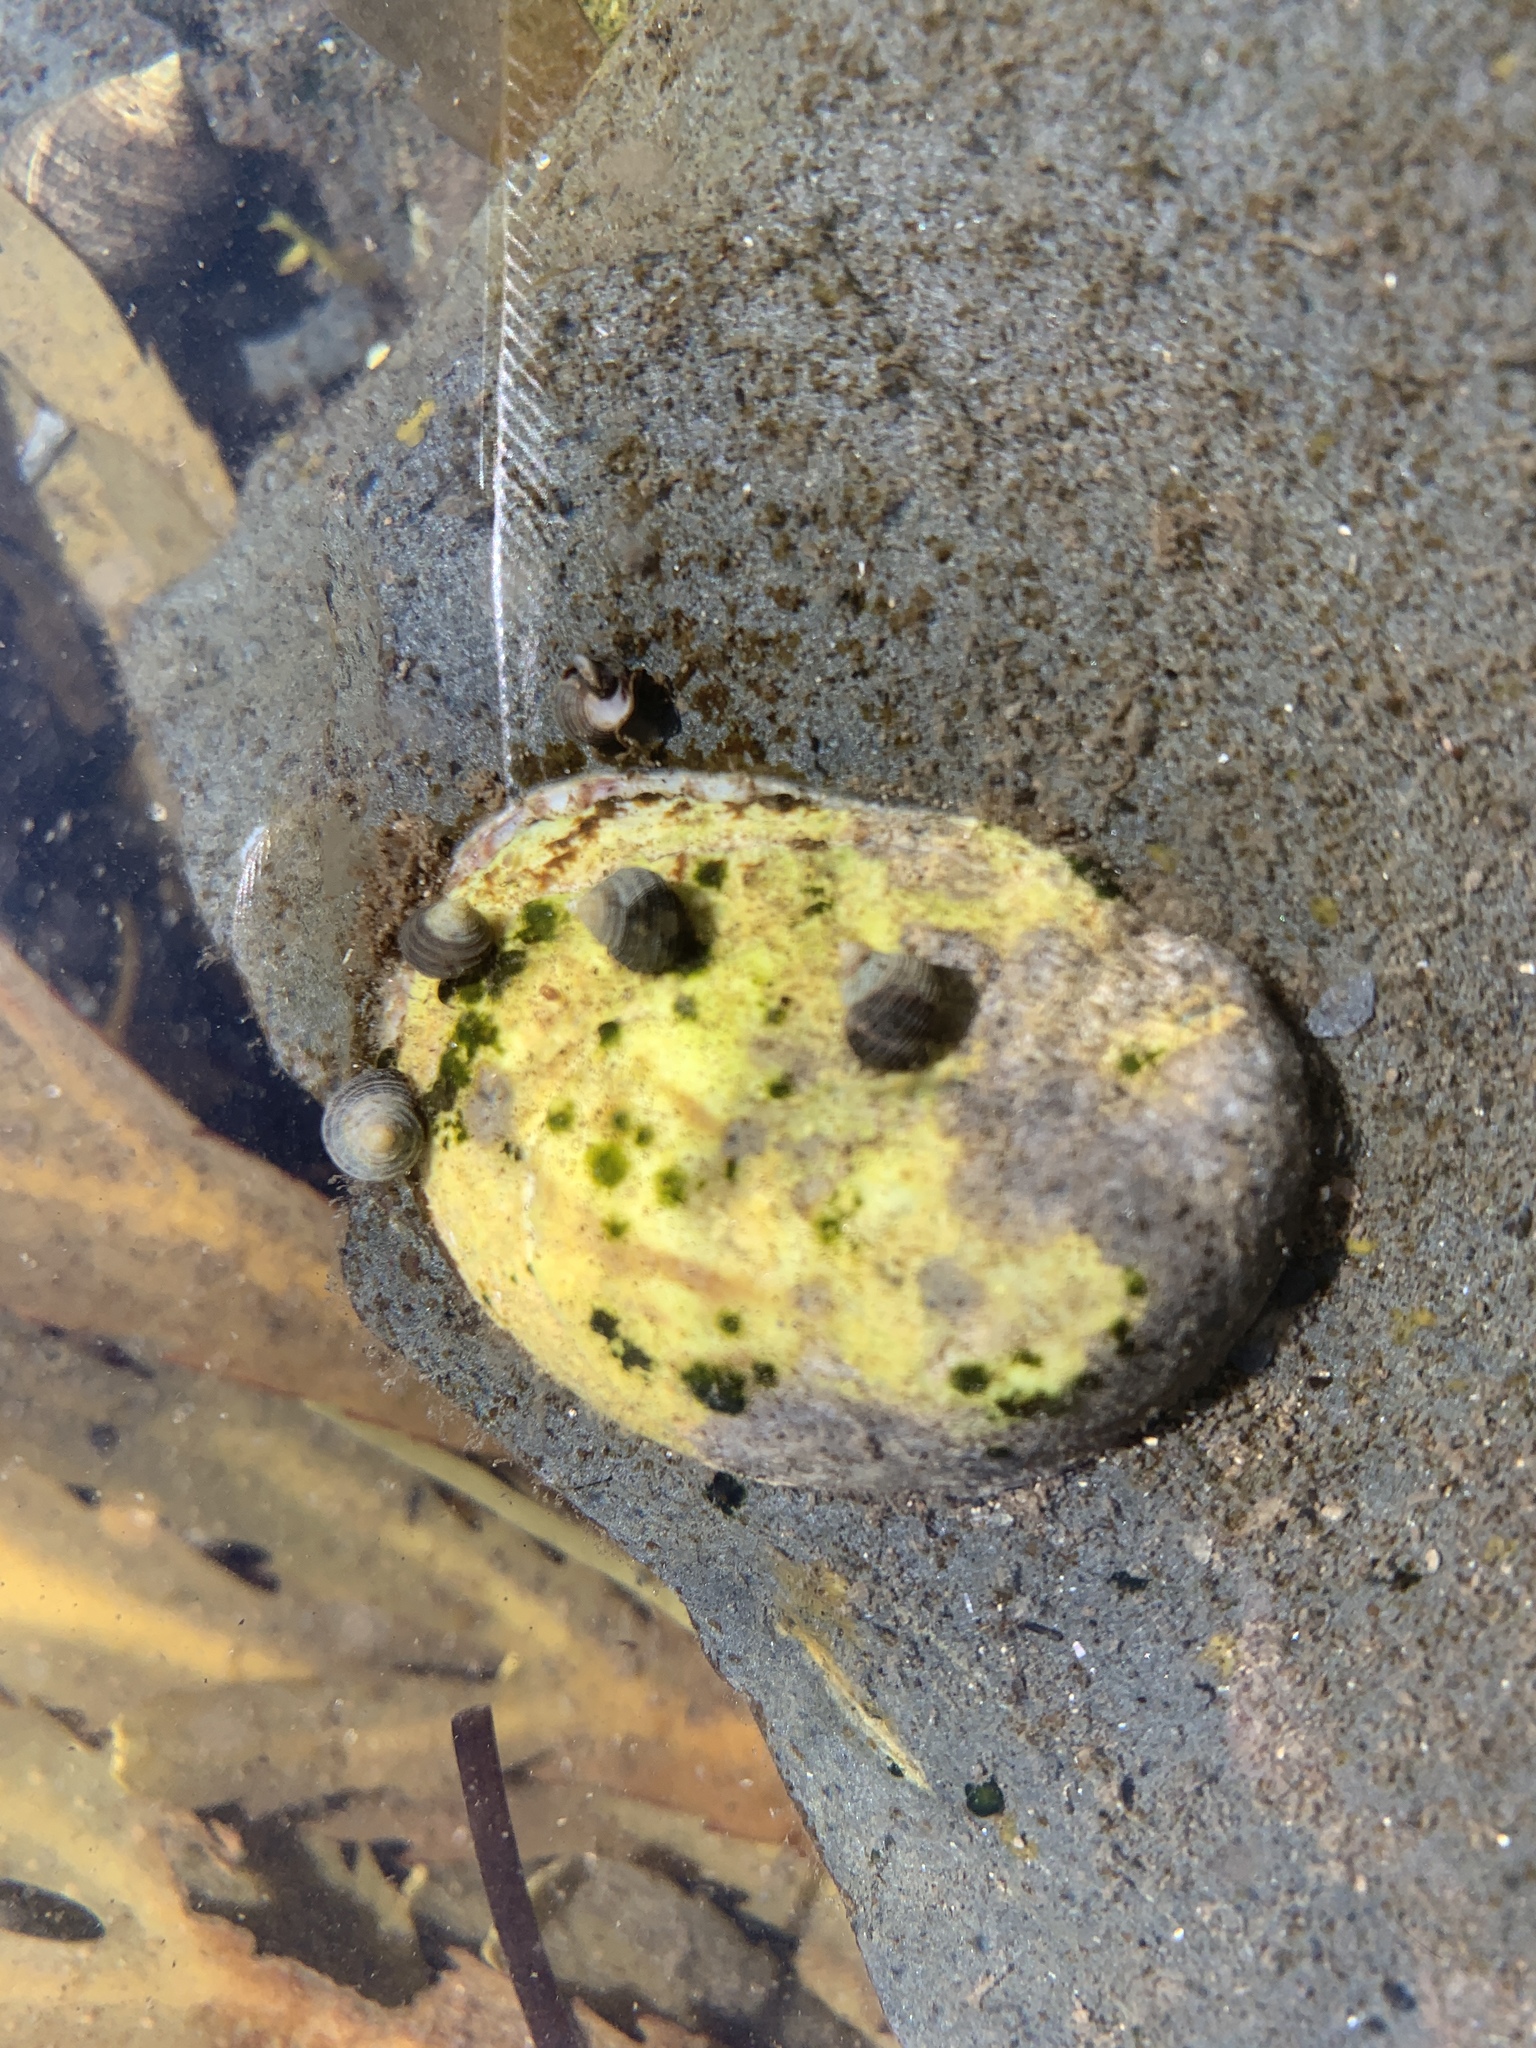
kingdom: Animalia
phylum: Mollusca
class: Gastropoda
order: Littorinimorpha
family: Calyptraeidae
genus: Crepidula
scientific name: Crepidula fornicata
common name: Slipper limpet
